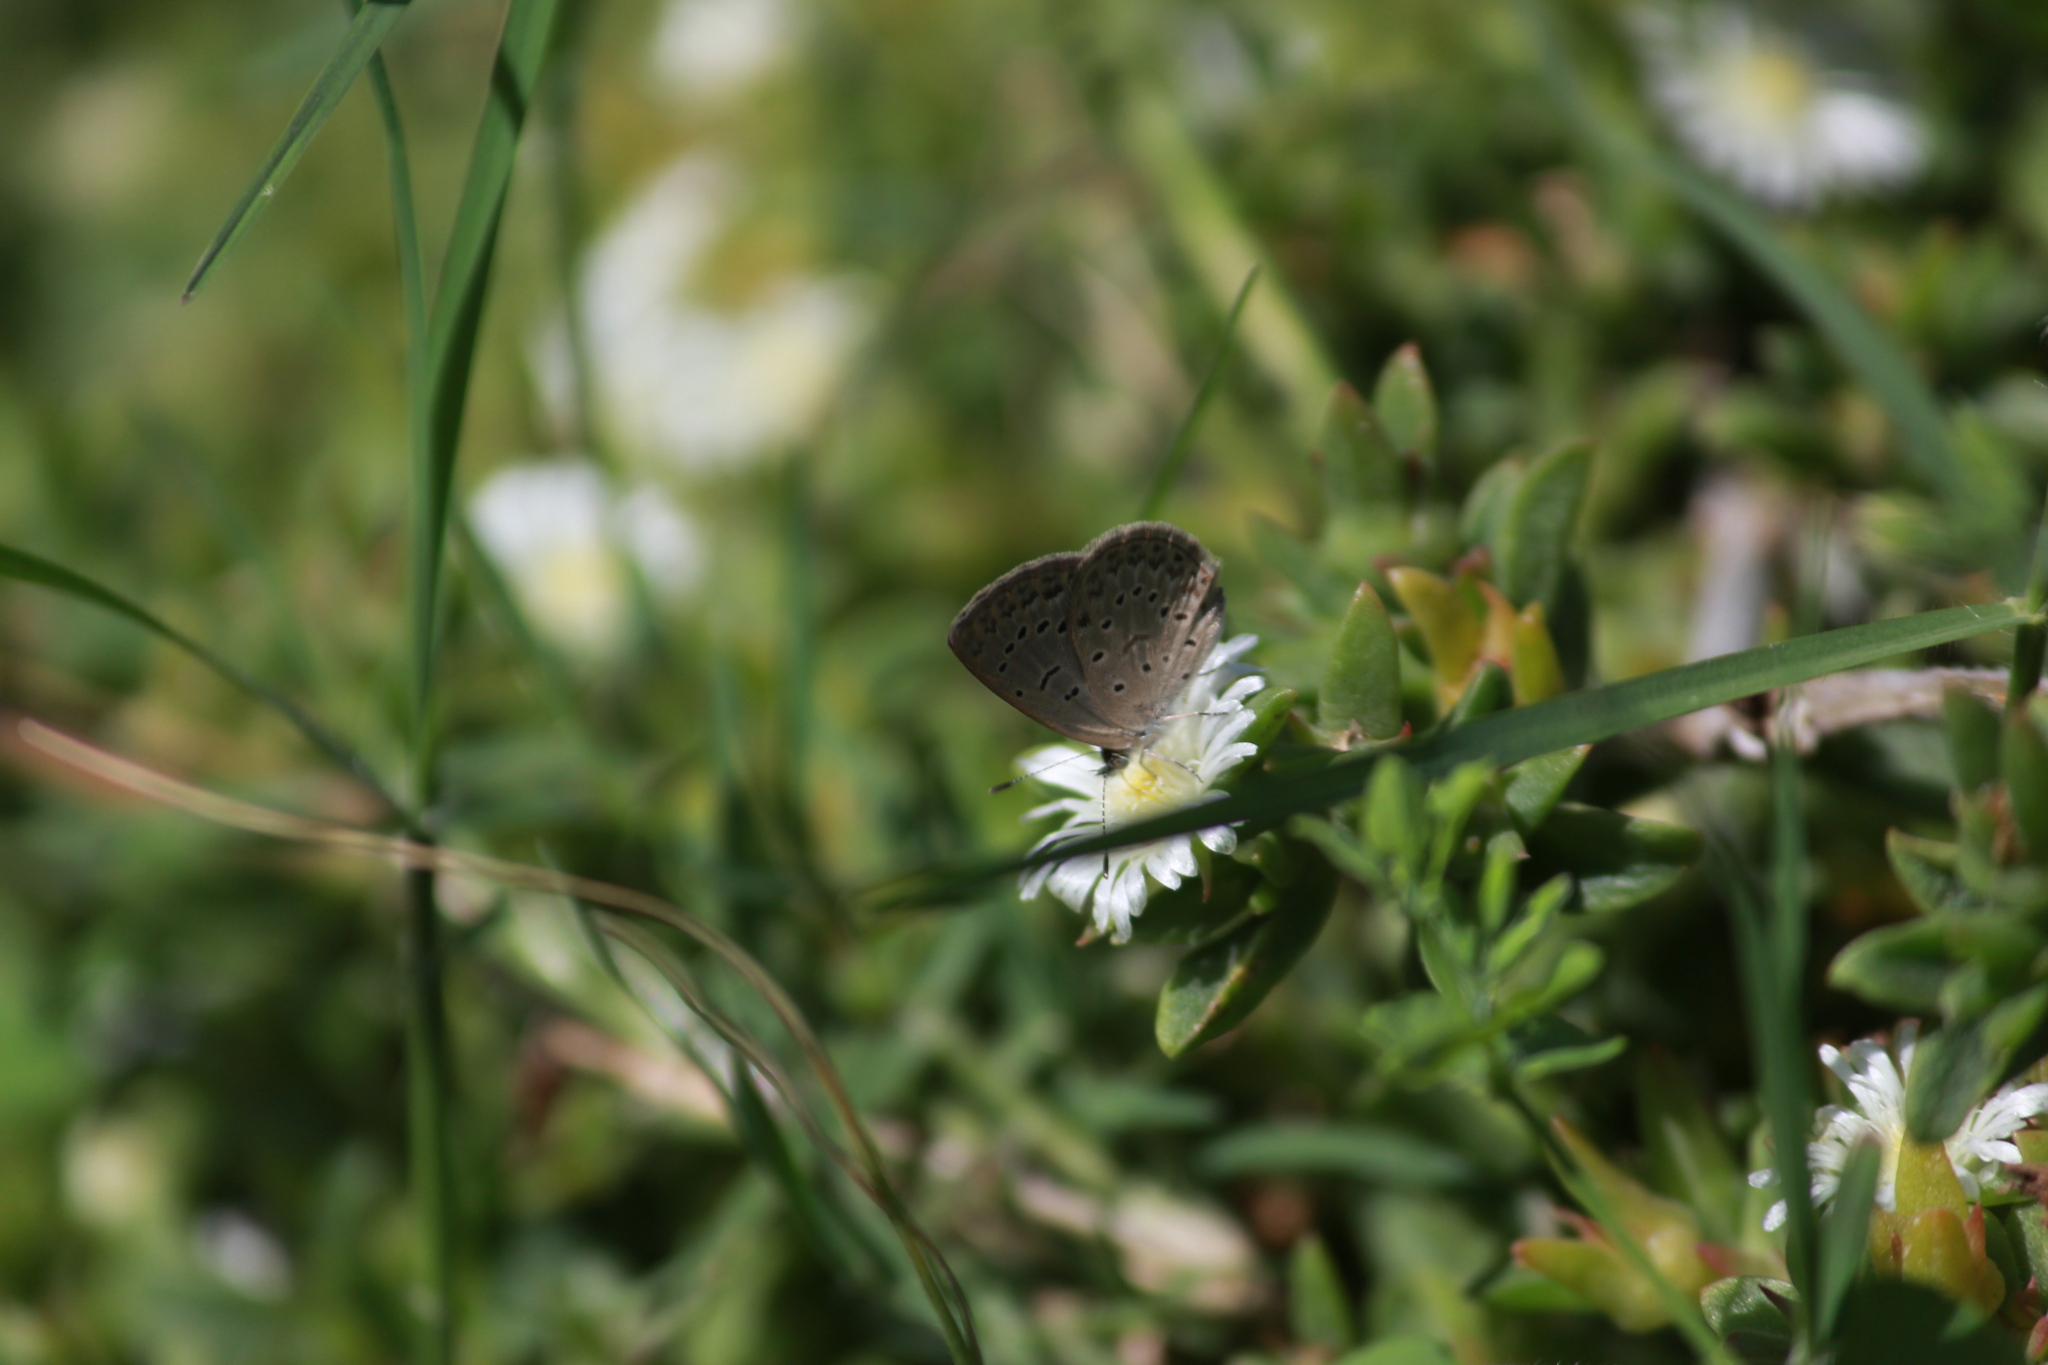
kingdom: Animalia
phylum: Arthropoda
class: Insecta
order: Lepidoptera
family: Lycaenidae
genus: Zizeeria
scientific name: Zizeeria knysna
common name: African grass blue
